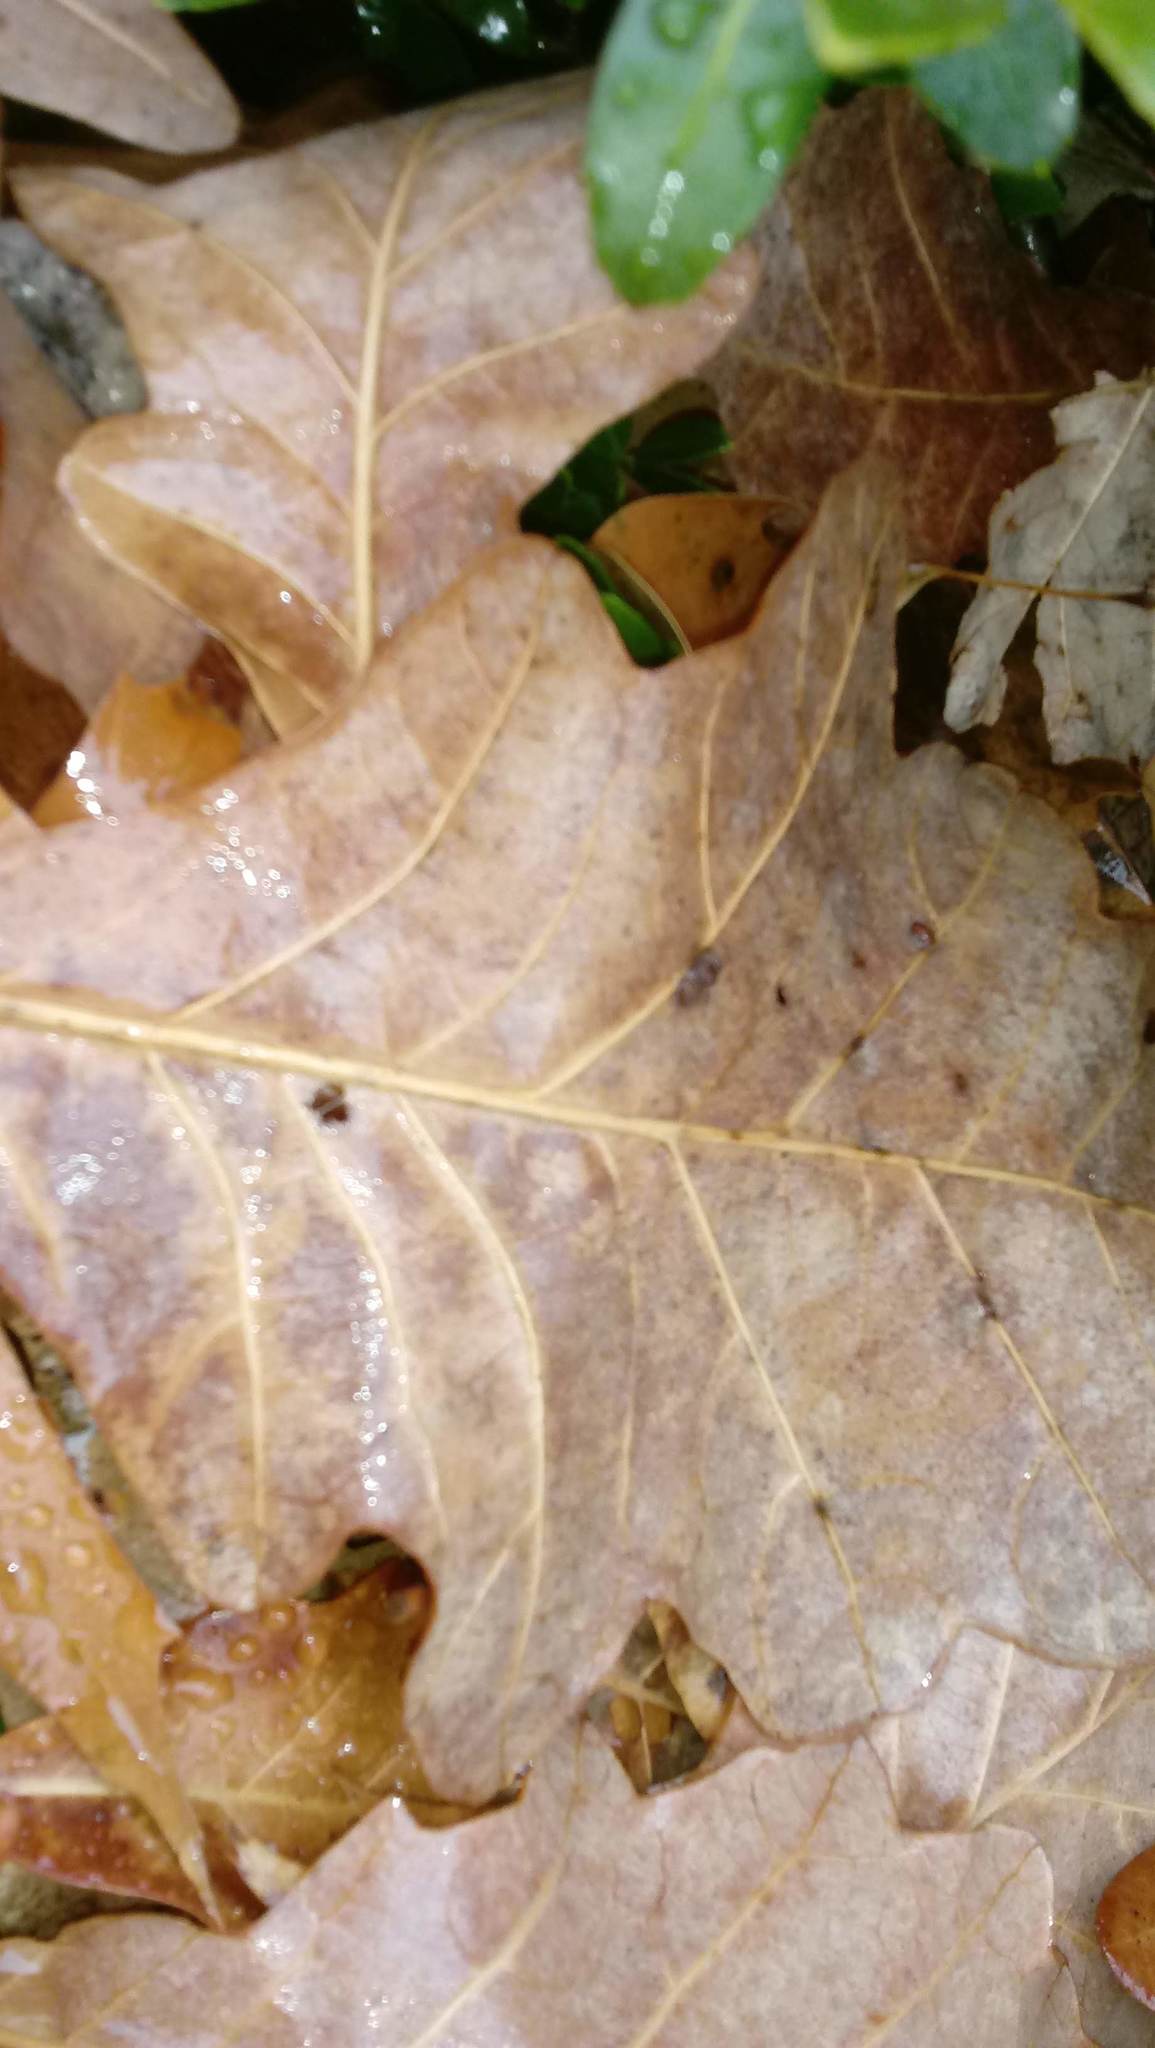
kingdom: Animalia
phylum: Arthropoda
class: Insecta
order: Hymenoptera
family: Cynipidae
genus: Andricus
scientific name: Andricus Druon ignotum
